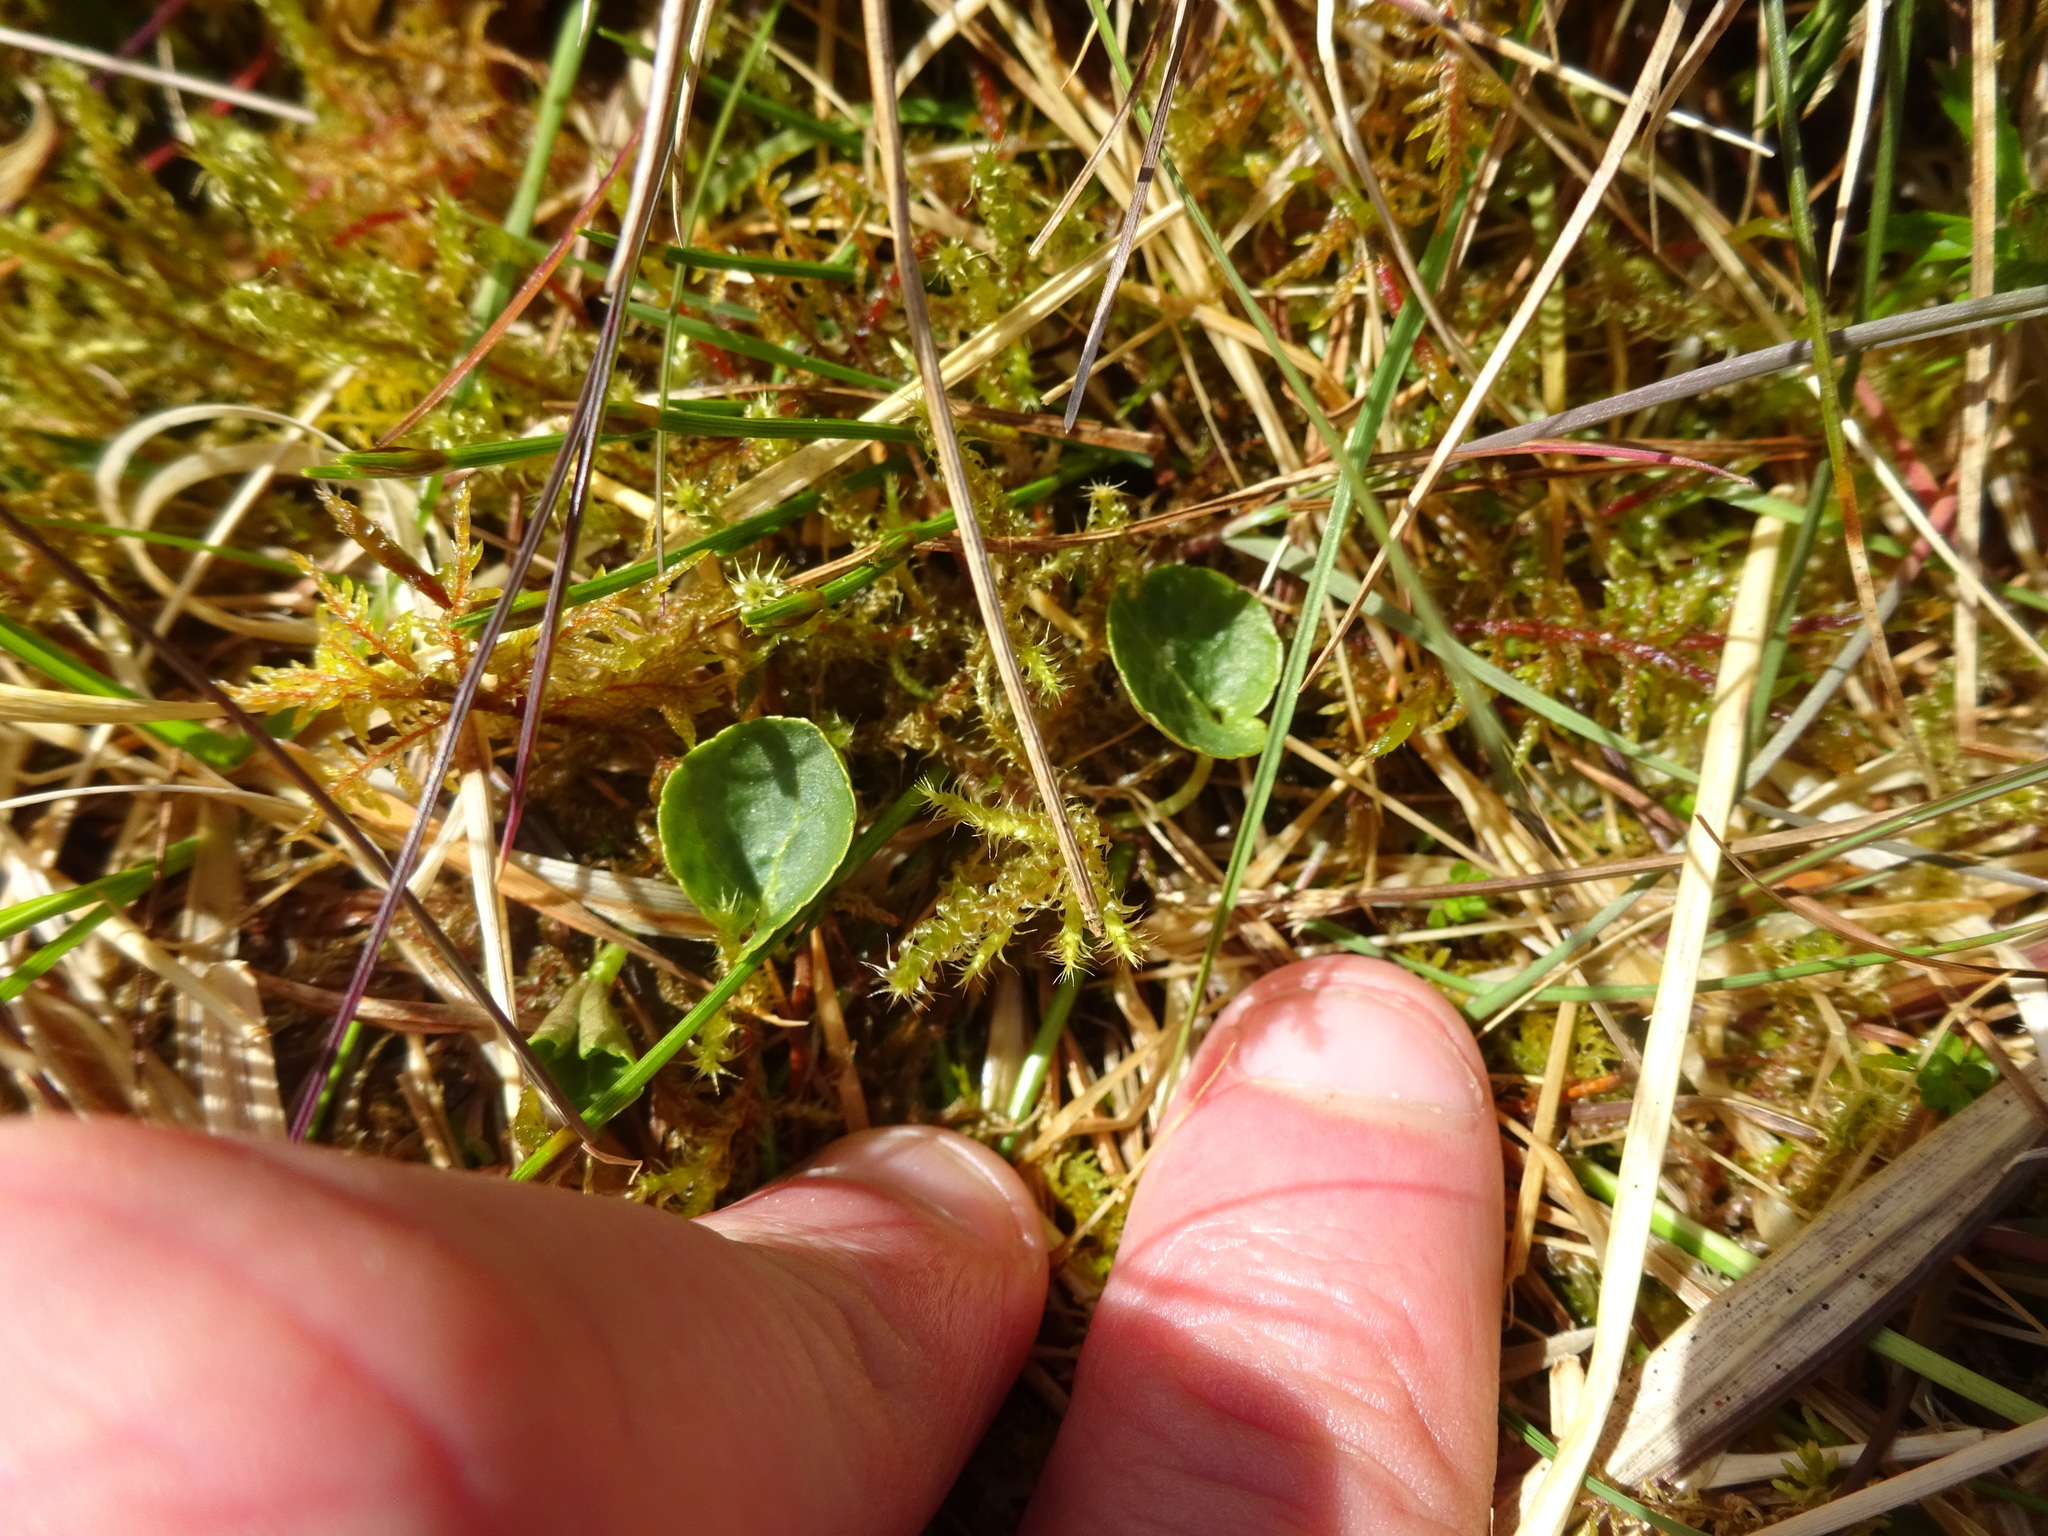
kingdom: Plantae
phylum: Tracheophyta
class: Magnoliopsida
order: Malpighiales
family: Violaceae
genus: Viola
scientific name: Viola palustris
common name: Marsh violet
